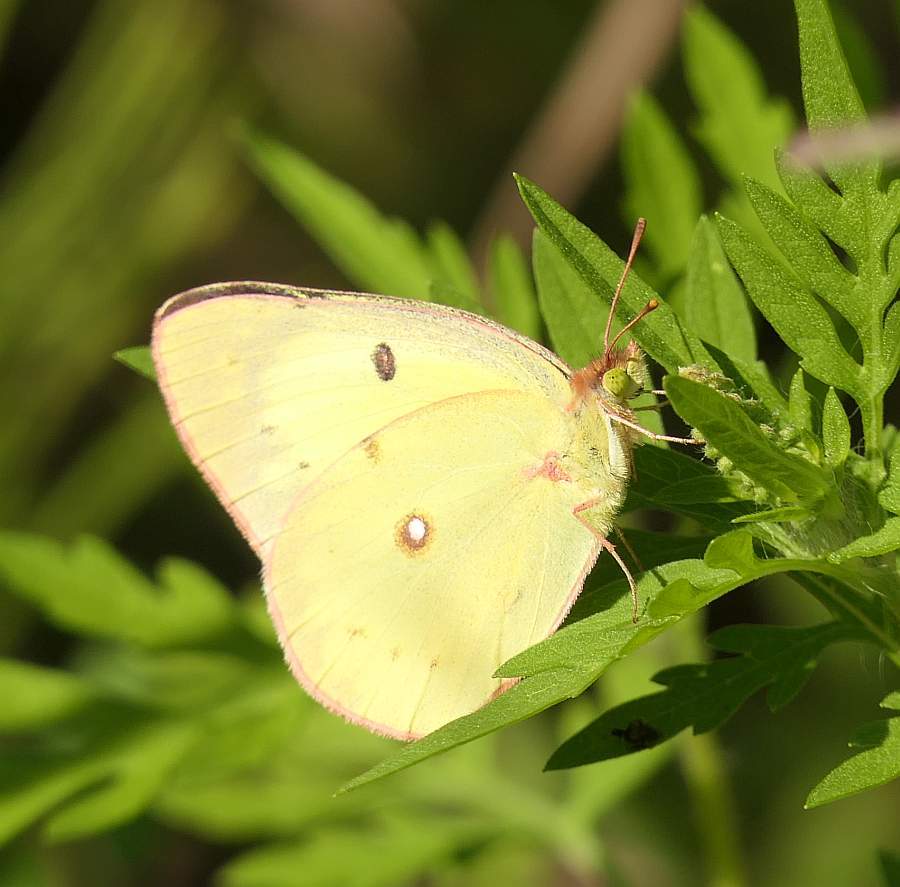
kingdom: Animalia
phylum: Arthropoda
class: Insecta
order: Lepidoptera
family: Pieridae
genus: Colias
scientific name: Colias philodice
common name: Clouded sulphur
